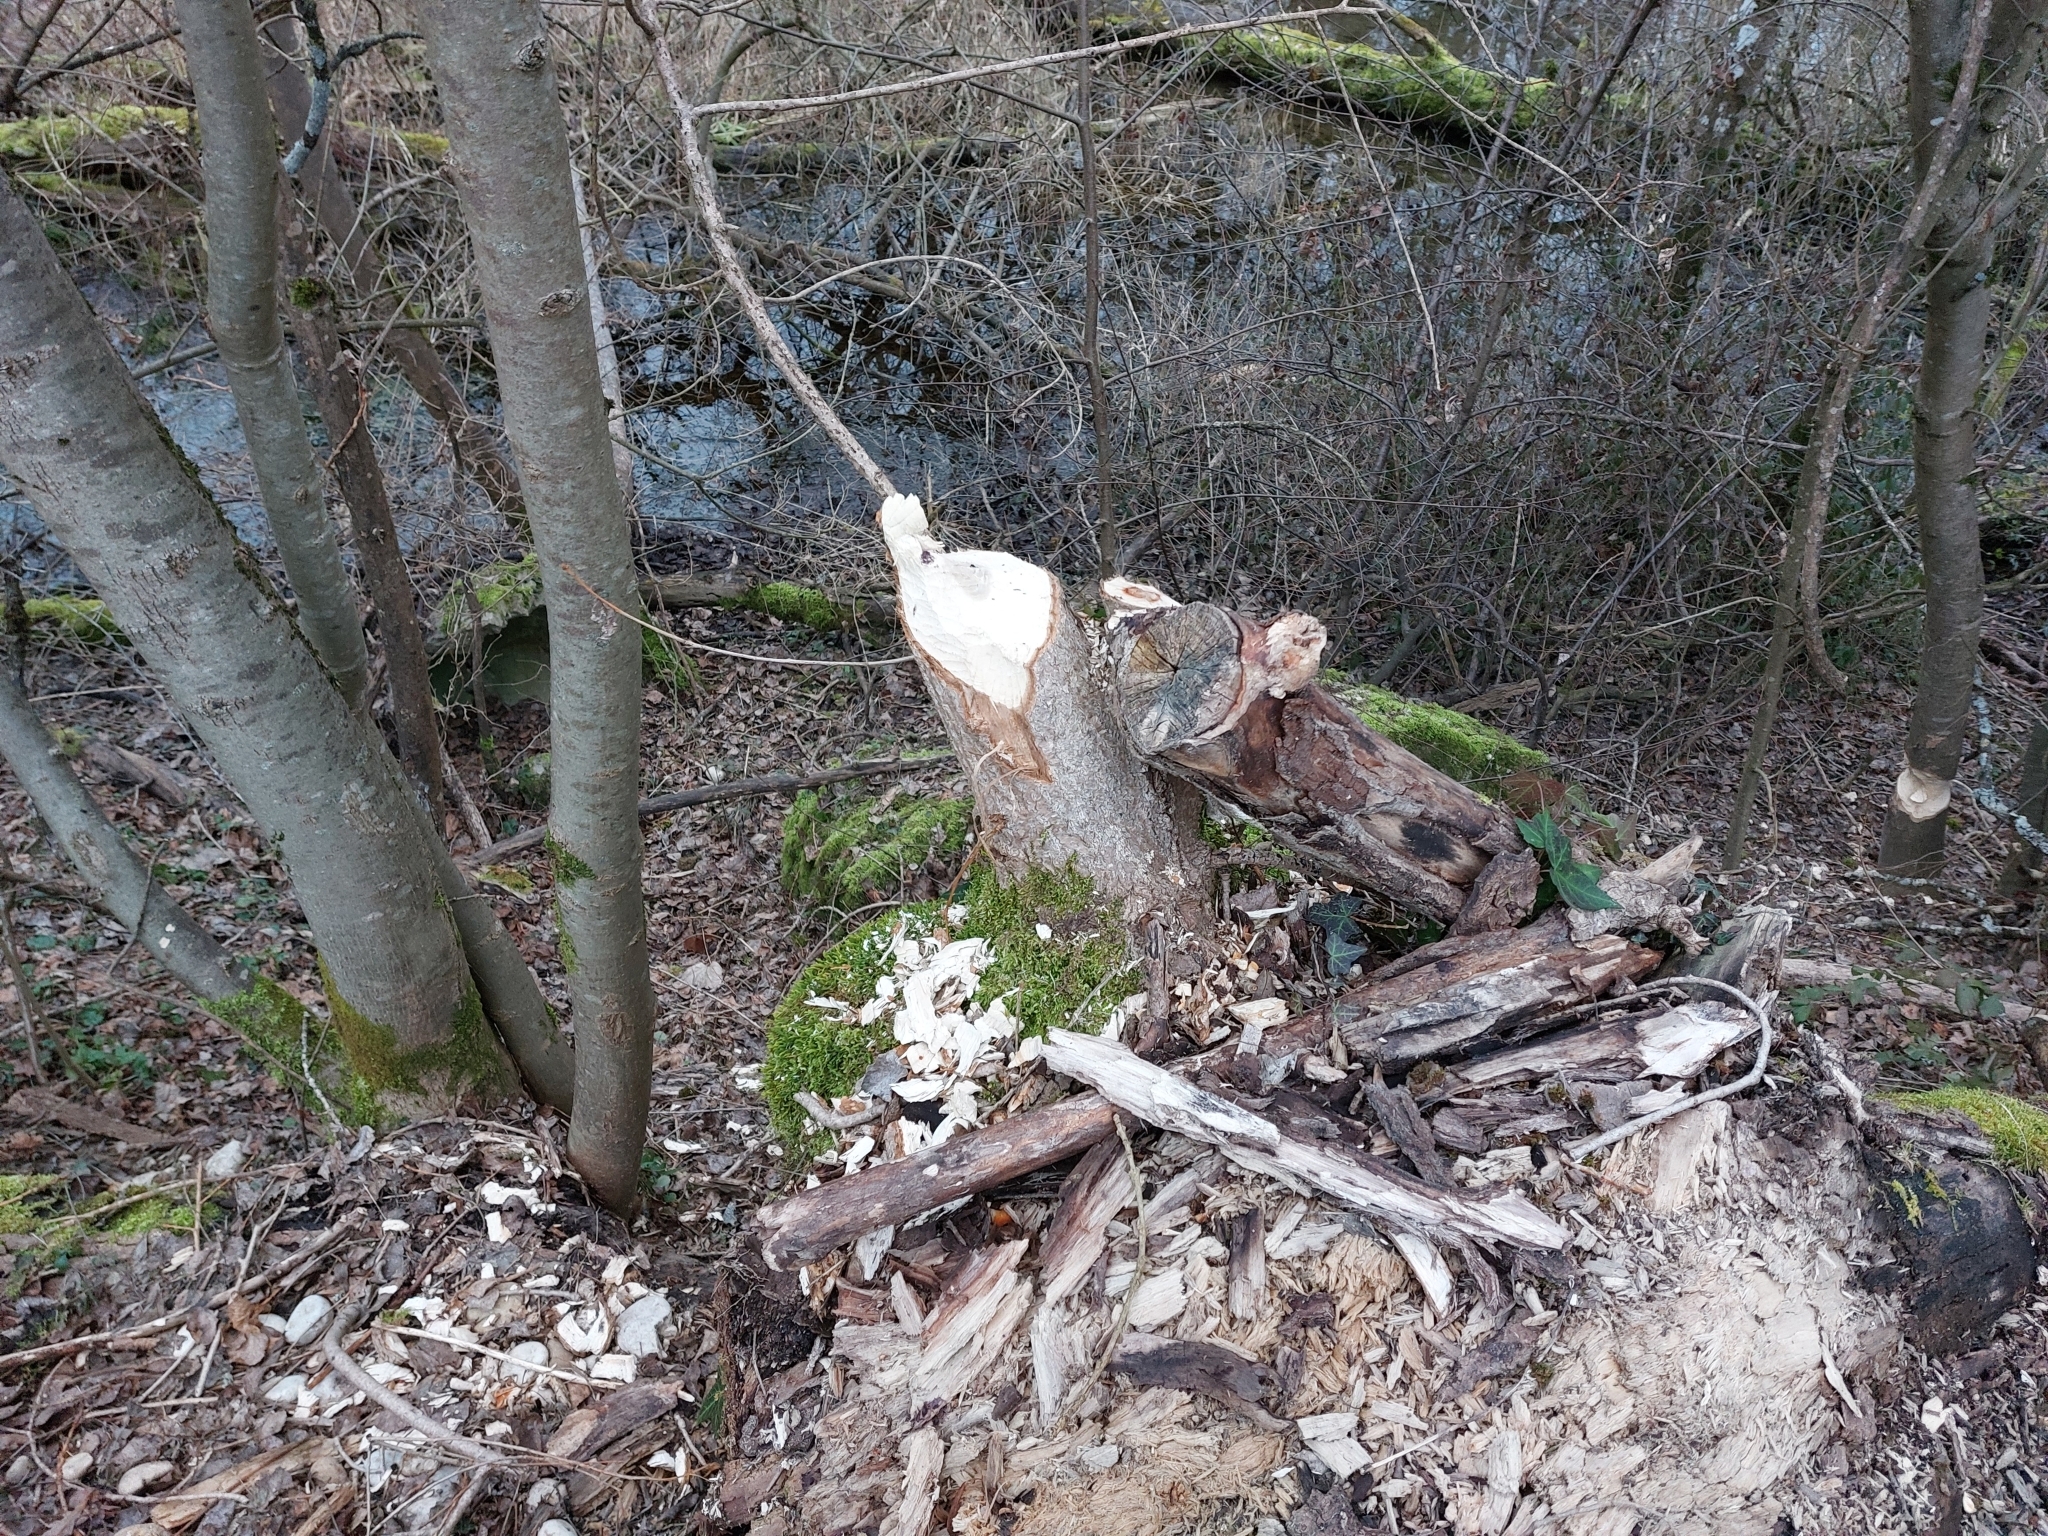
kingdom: Animalia
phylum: Chordata
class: Mammalia
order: Rodentia
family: Castoridae
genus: Castor
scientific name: Castor fiber
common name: Eurasian beaver
